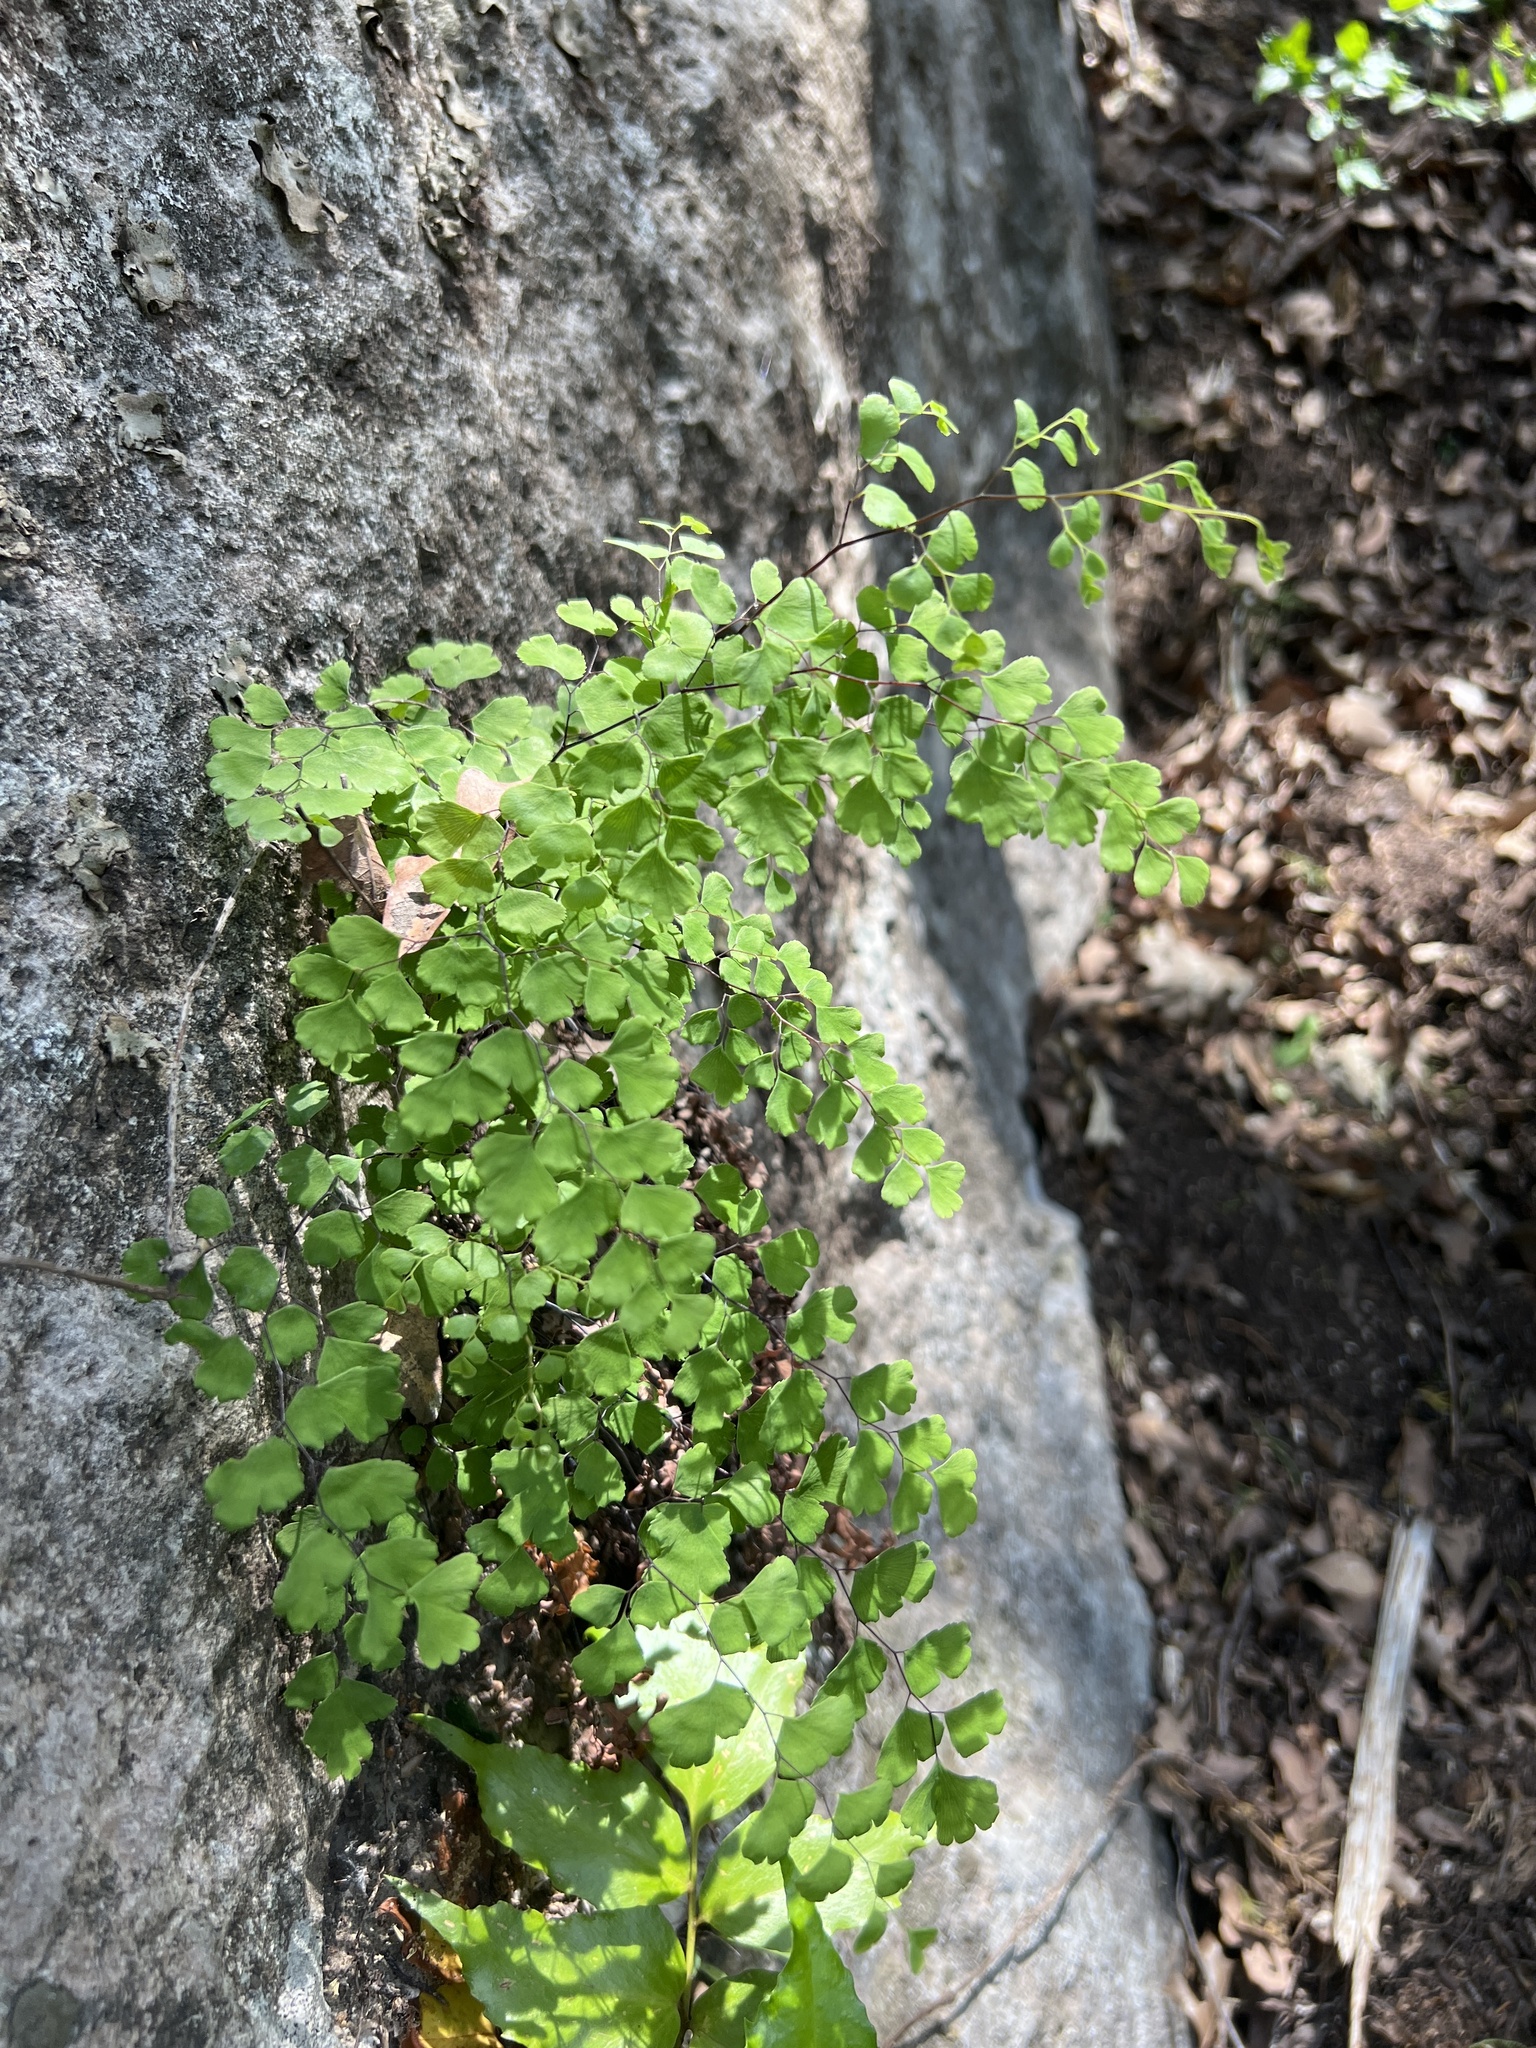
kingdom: Plantae
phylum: Tracheophyta
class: Polypodiopsida
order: Polypodiales
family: Pteridaceae
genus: Adiantum
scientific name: Adiantum capillus-veneris
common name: Maidenhair fern
